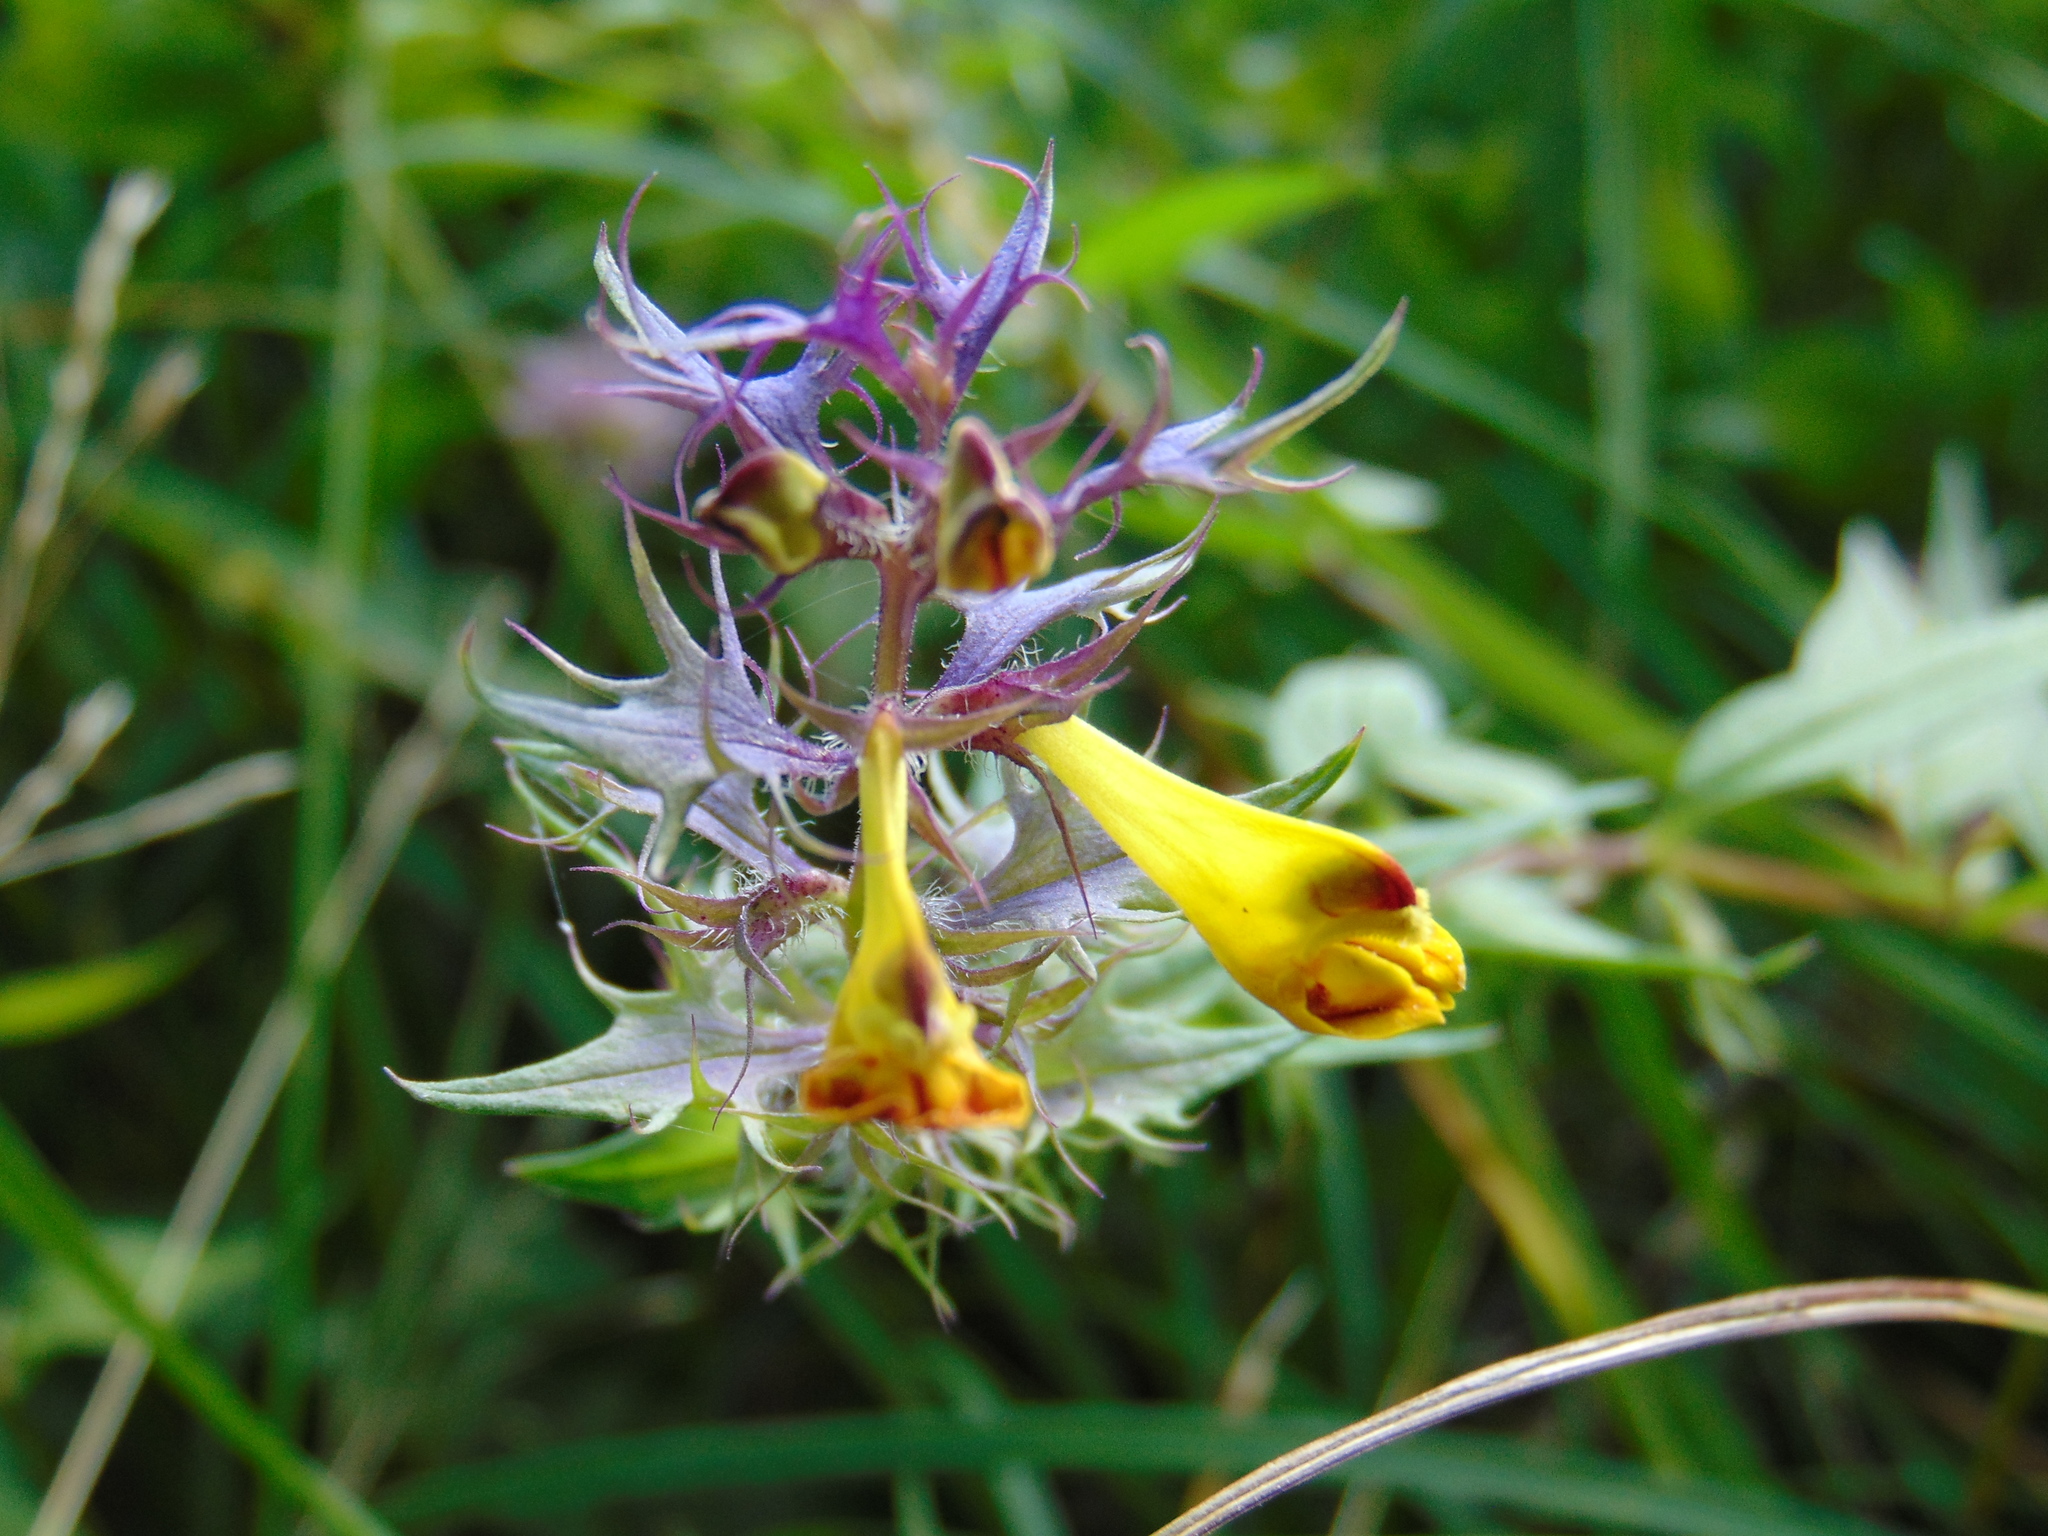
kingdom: Plantae
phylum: Tracheophyta
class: Magnoliopsida
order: Lamiales
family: Orobanchaceae
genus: Melampyrum
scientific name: Melampyrum nemorosum
